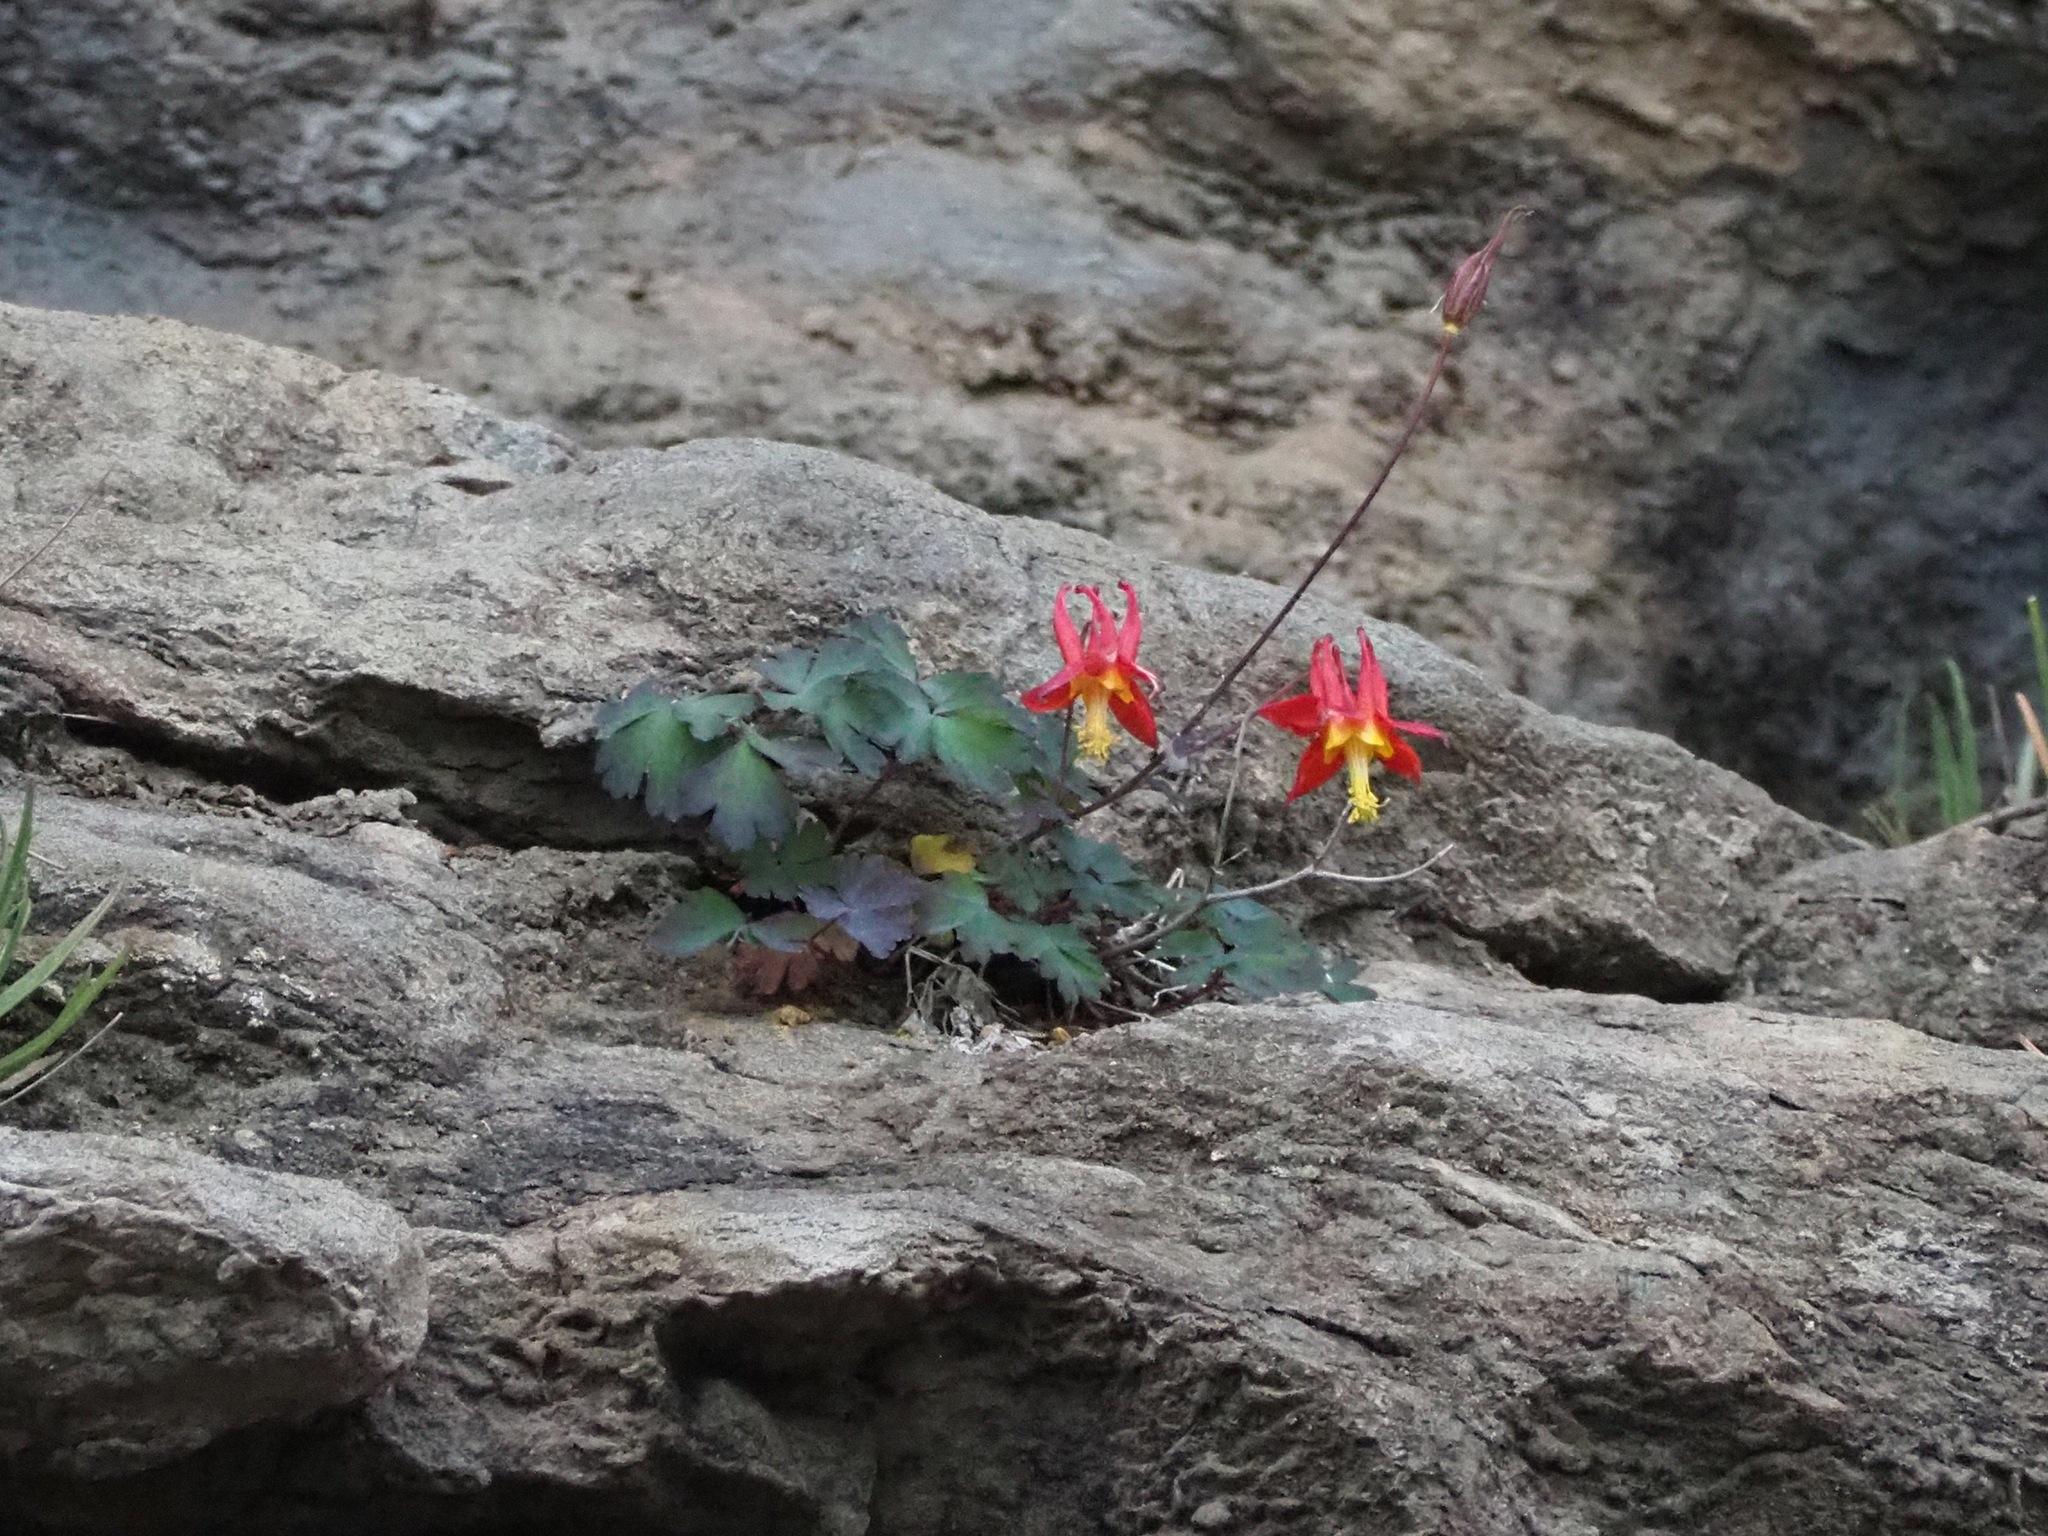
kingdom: Plantae
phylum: Tracheophyta
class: Magnoliopsida
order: Ranunculales
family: Ranunculaceae
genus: Aquilegia
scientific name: Aquilegia formosa
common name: Sitka columbine
